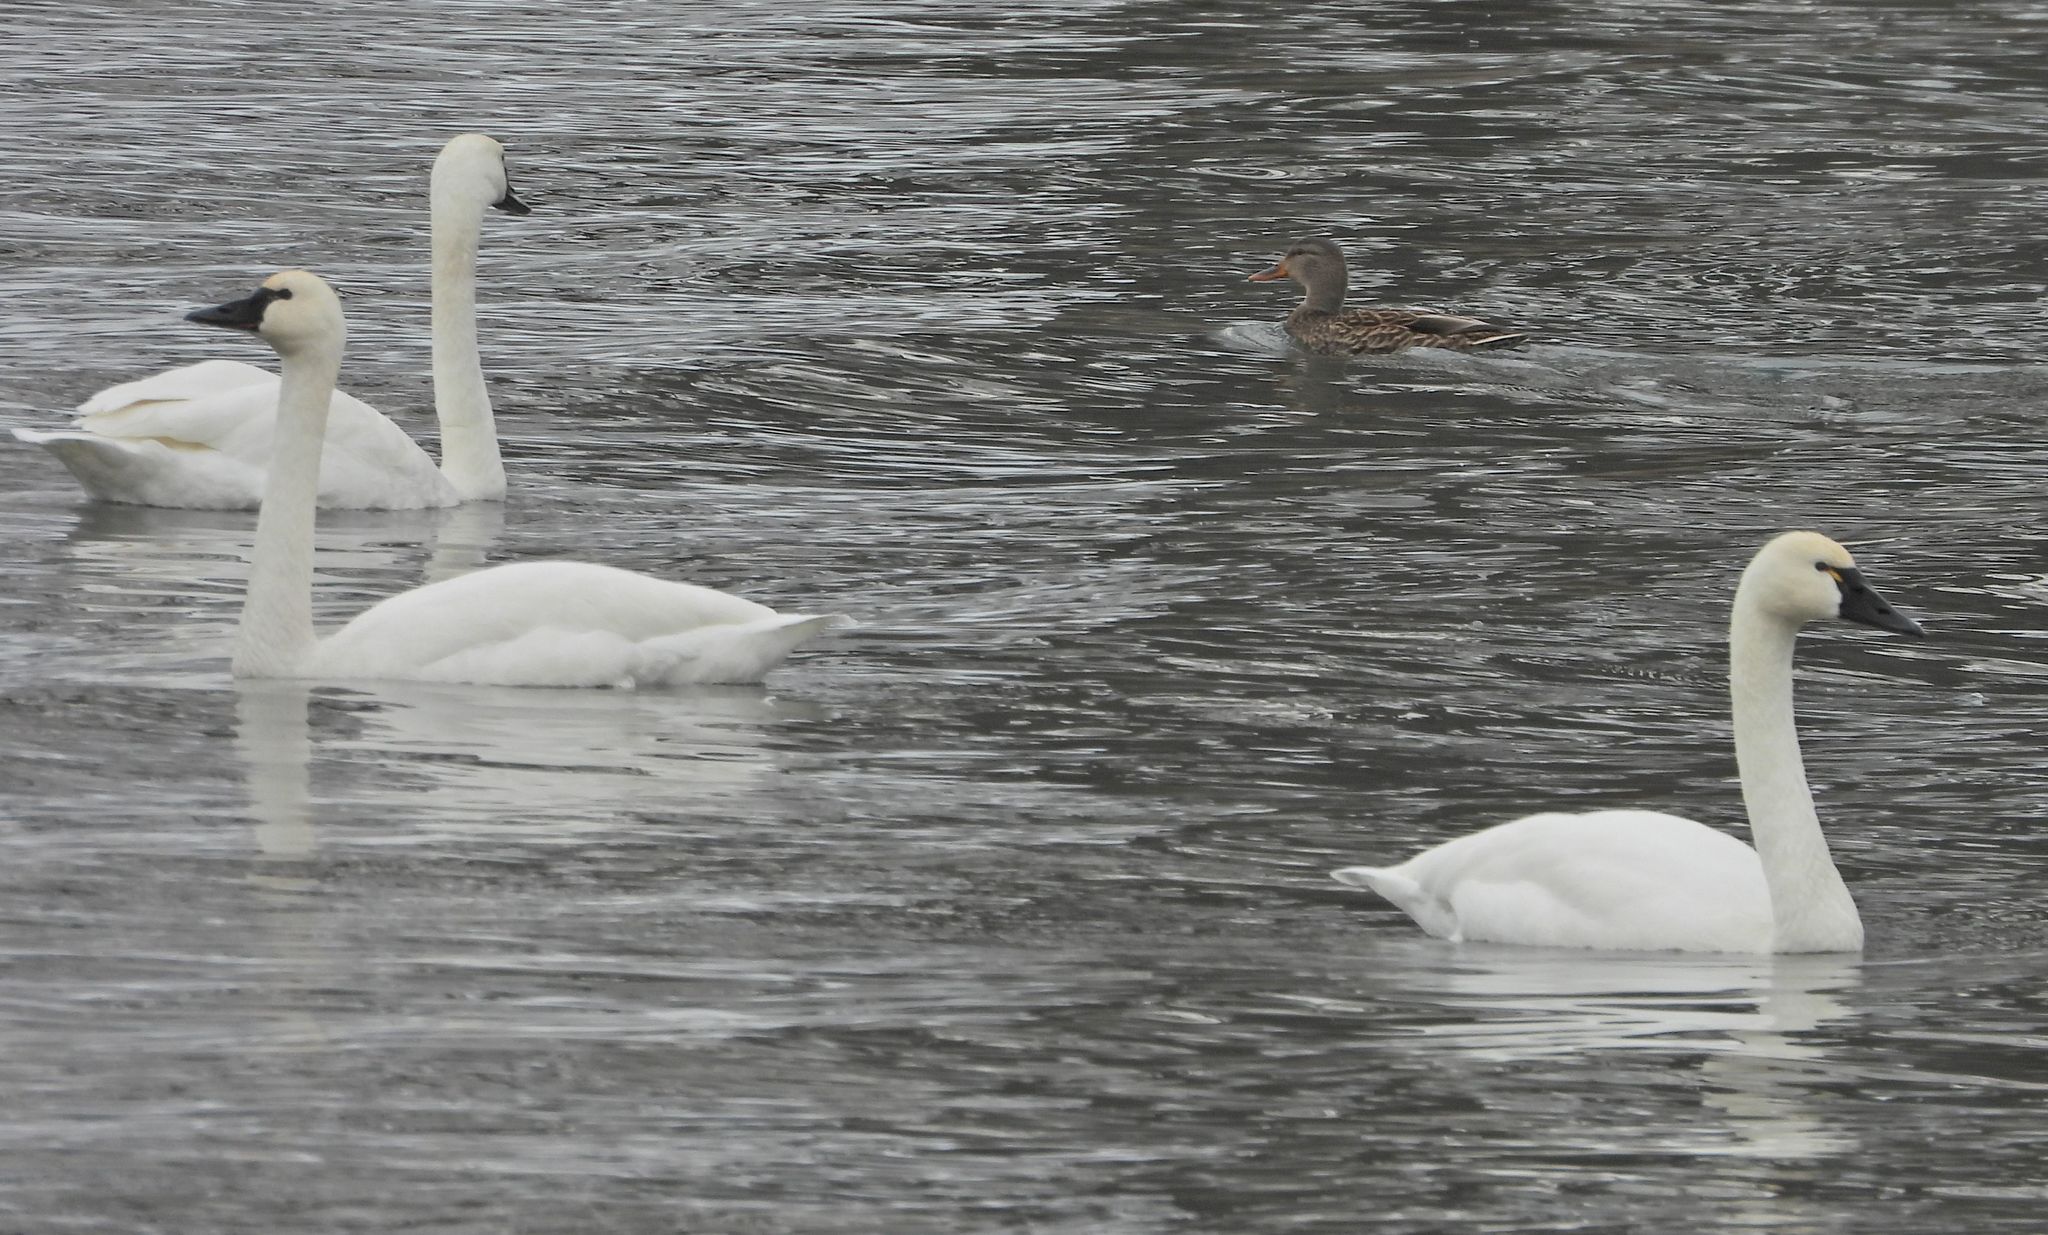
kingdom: Animalia
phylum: Chordata
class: Aves
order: Anseriformes
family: Anatidae
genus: Cygnus
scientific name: Cygnus columbianus
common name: Tundra swan
